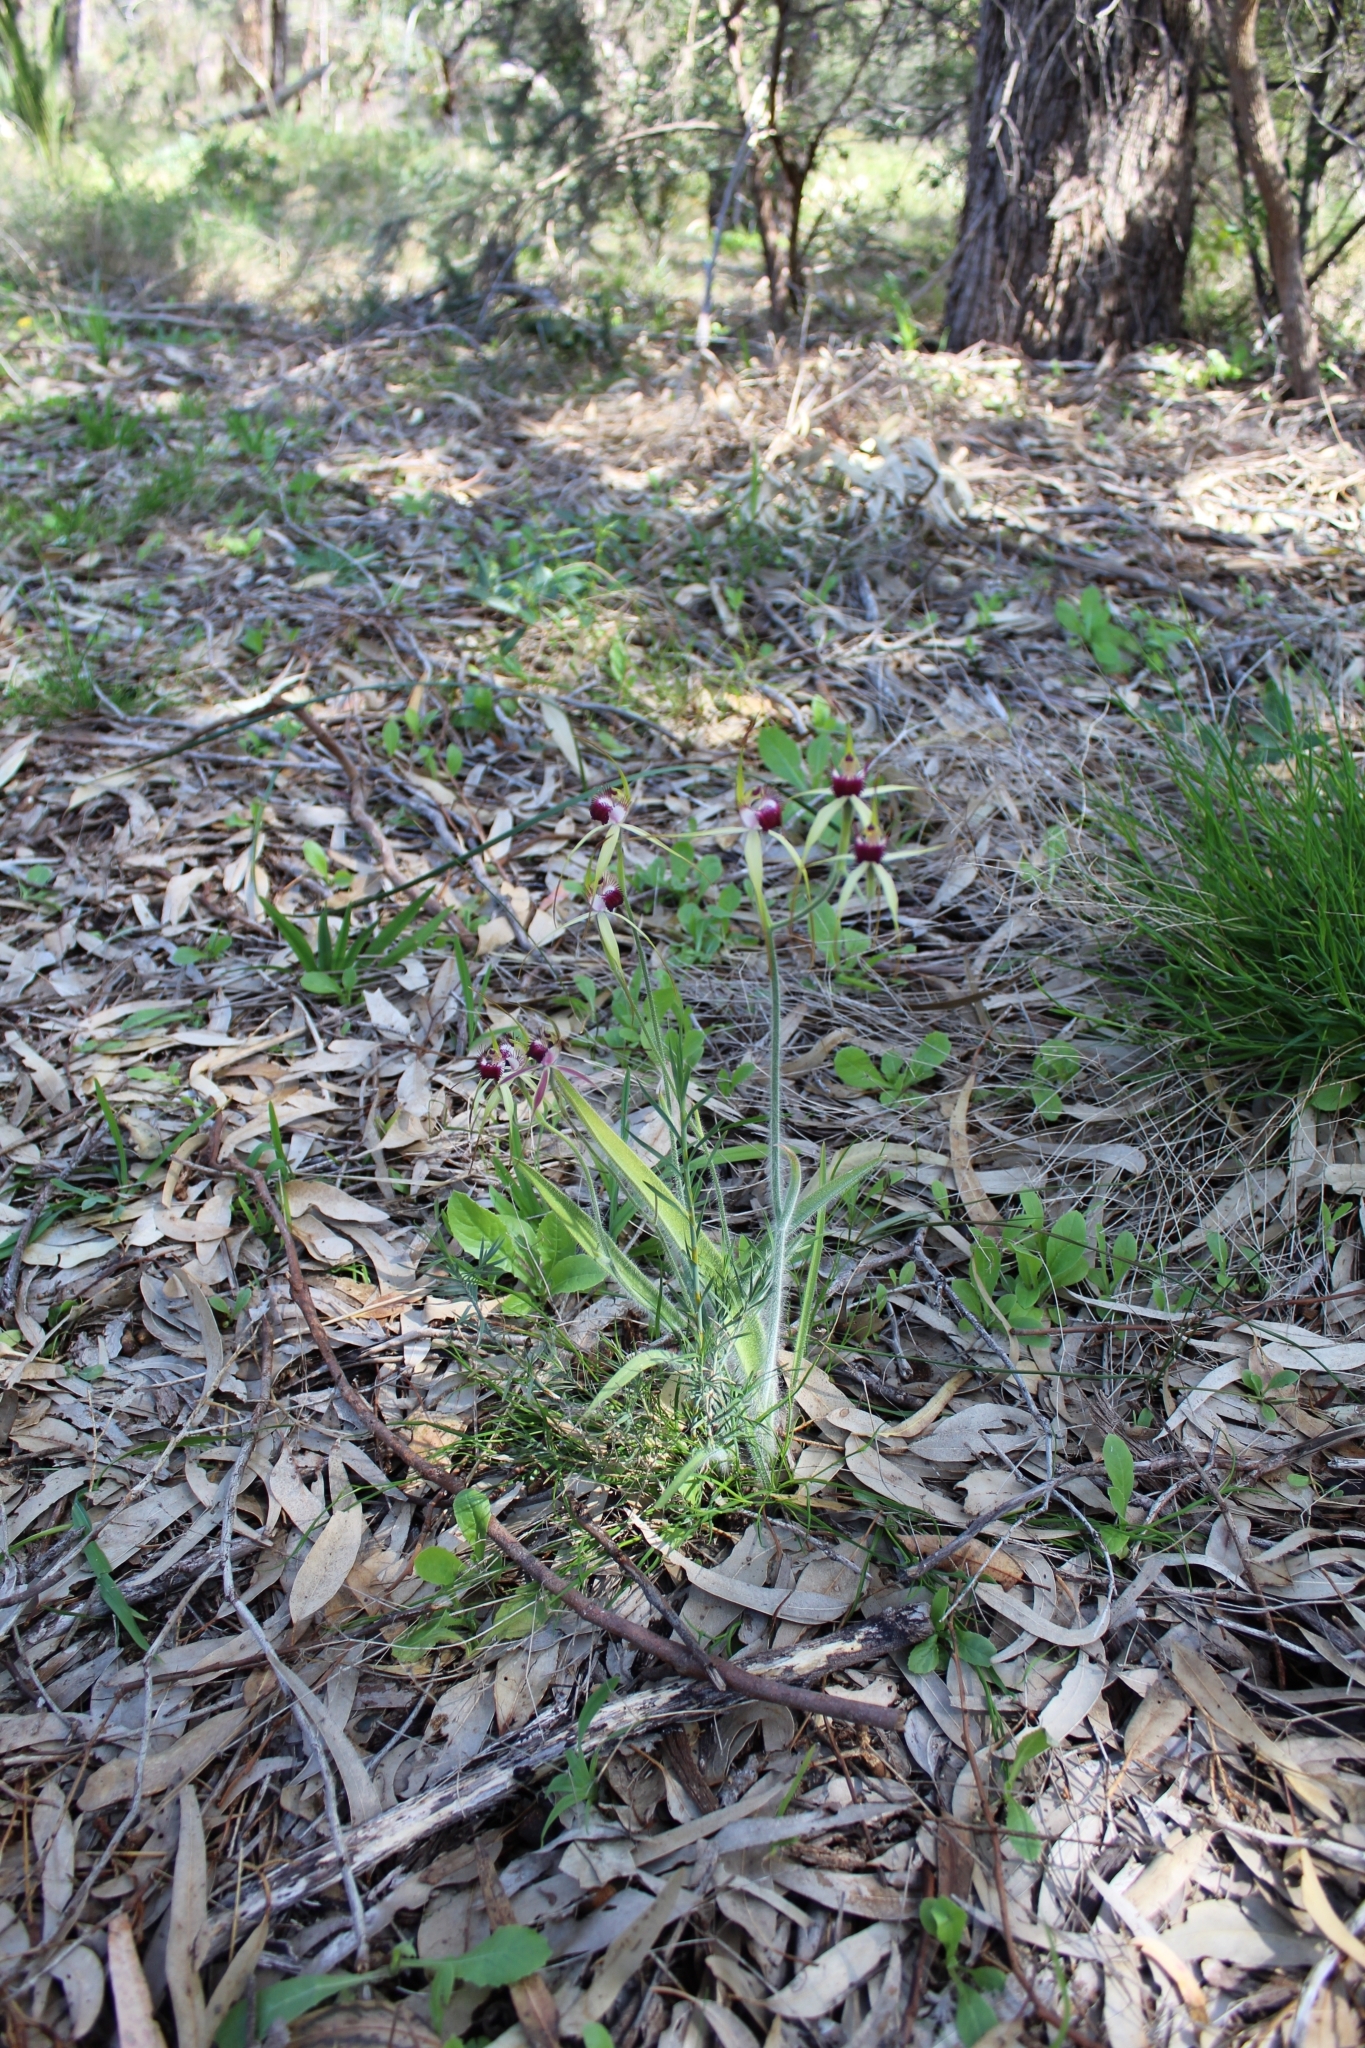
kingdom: Plantae
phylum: Tracheophyta
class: Liliopsida
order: Asparagales
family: Orchidaceae
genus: Caladenia
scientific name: Caladenia arenicola
